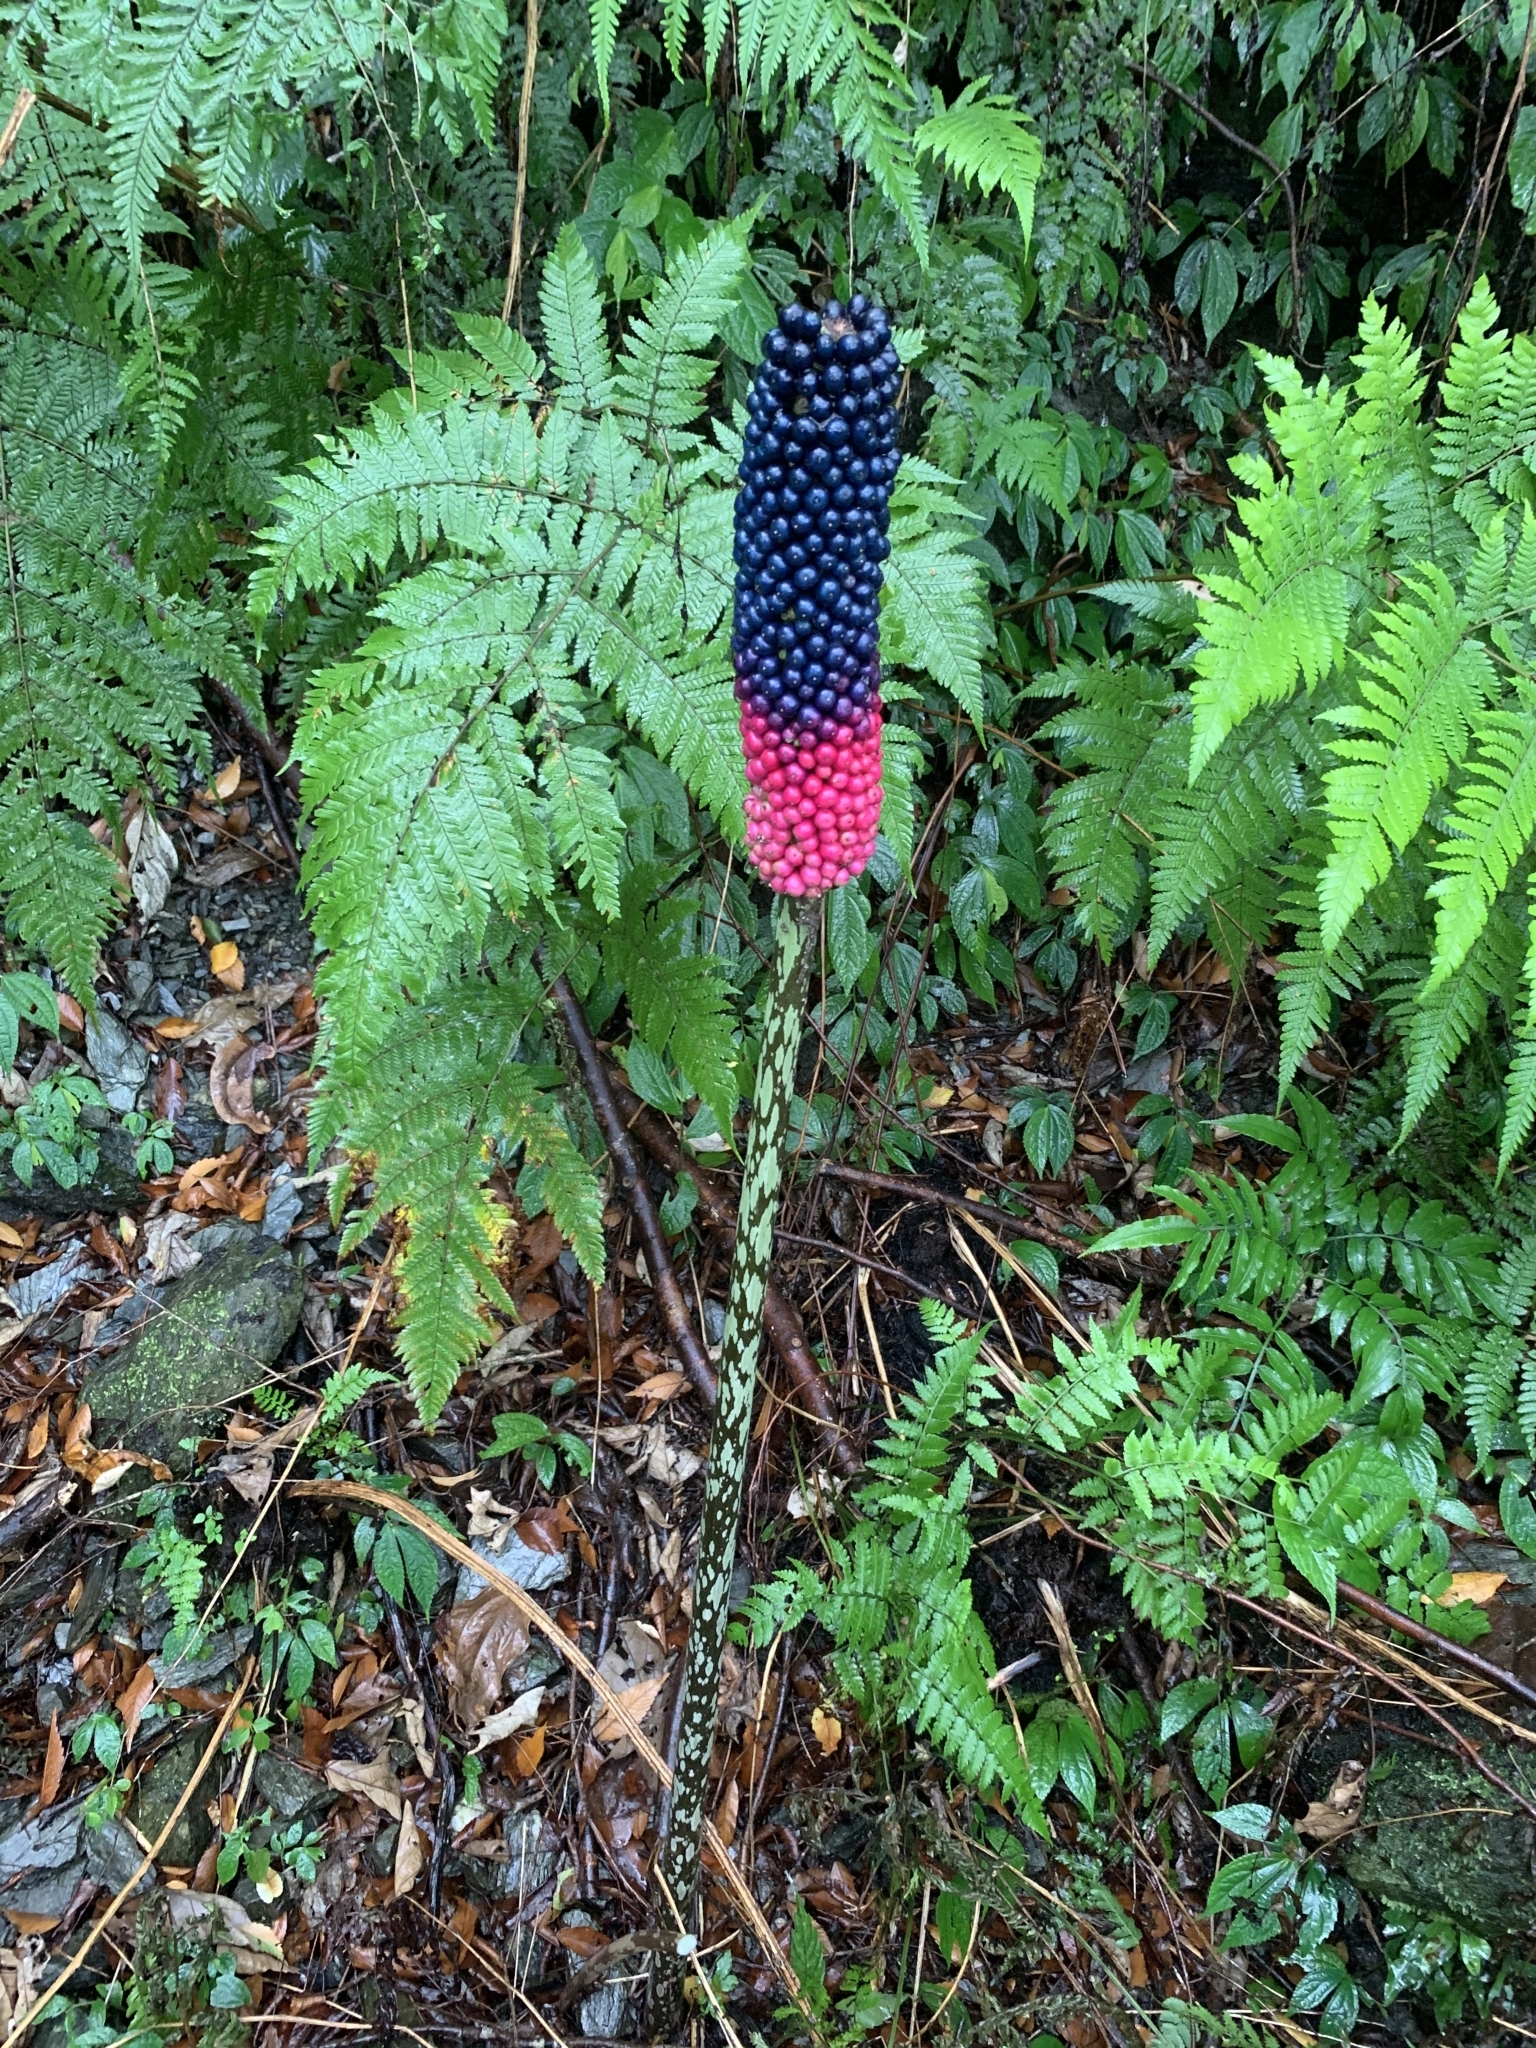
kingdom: Plantae
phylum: Tracheophyta
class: Liliopsida
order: Alismatales
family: Araceae
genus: Amorphophallus
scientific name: Amorphophallus kiusianus
